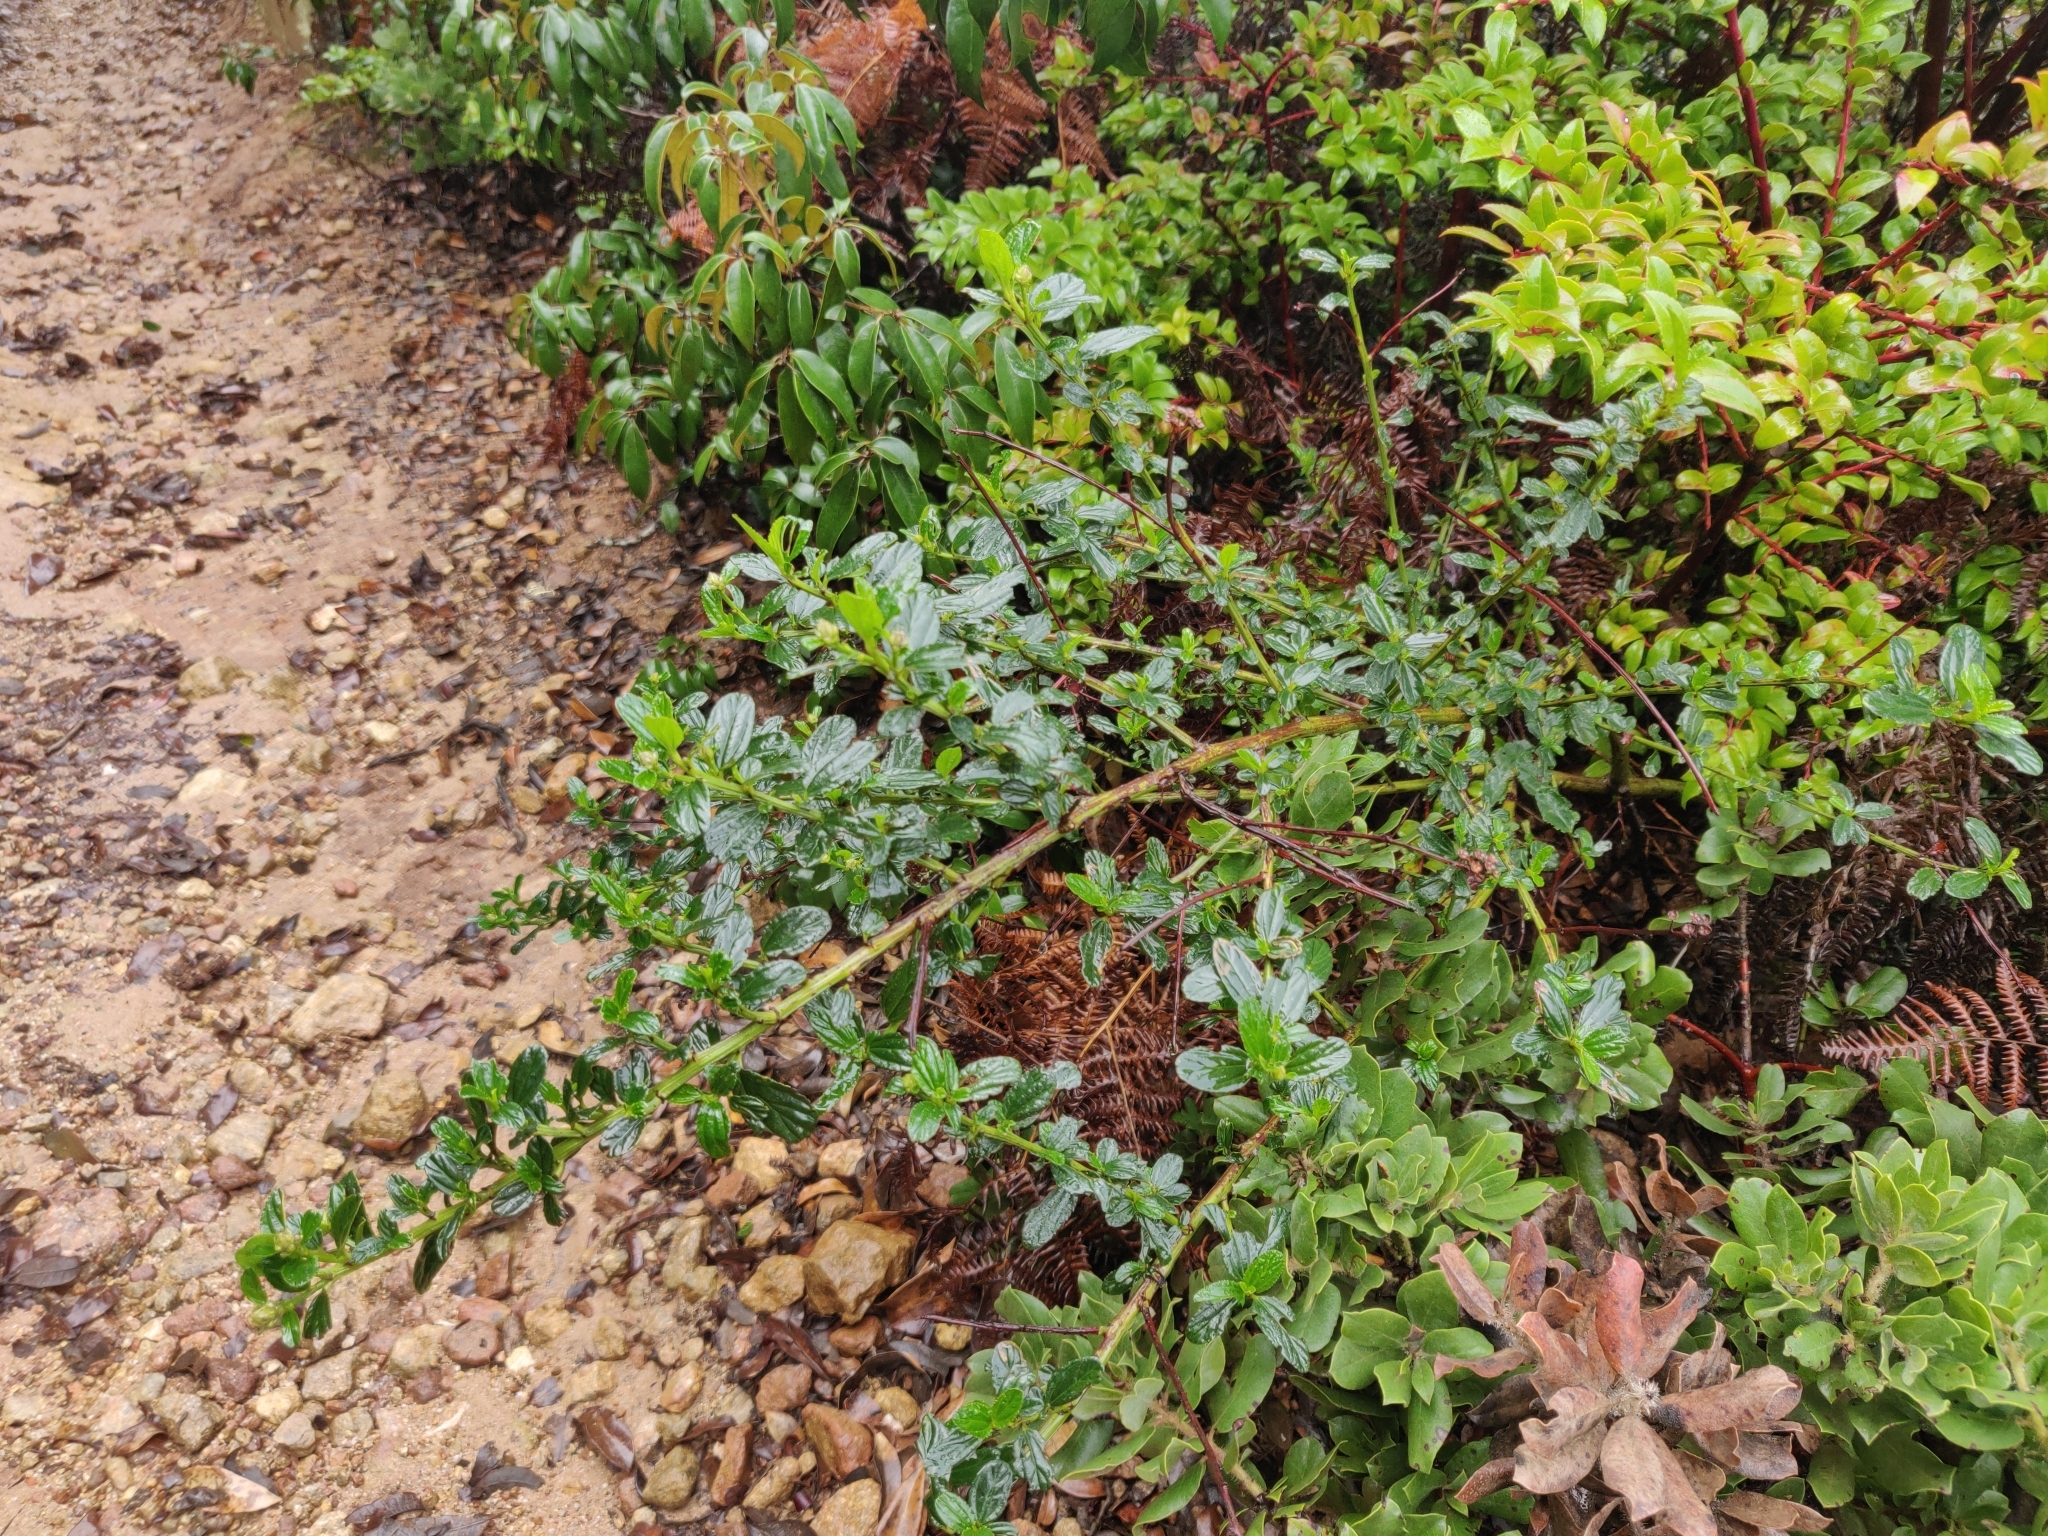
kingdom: Plantae
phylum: Tracheophyta
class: Magnoliopsida
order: Rosales
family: Rhamnaceae
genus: Ceanothus
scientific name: Ceanothus thyrsiflorus
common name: California-lilac
